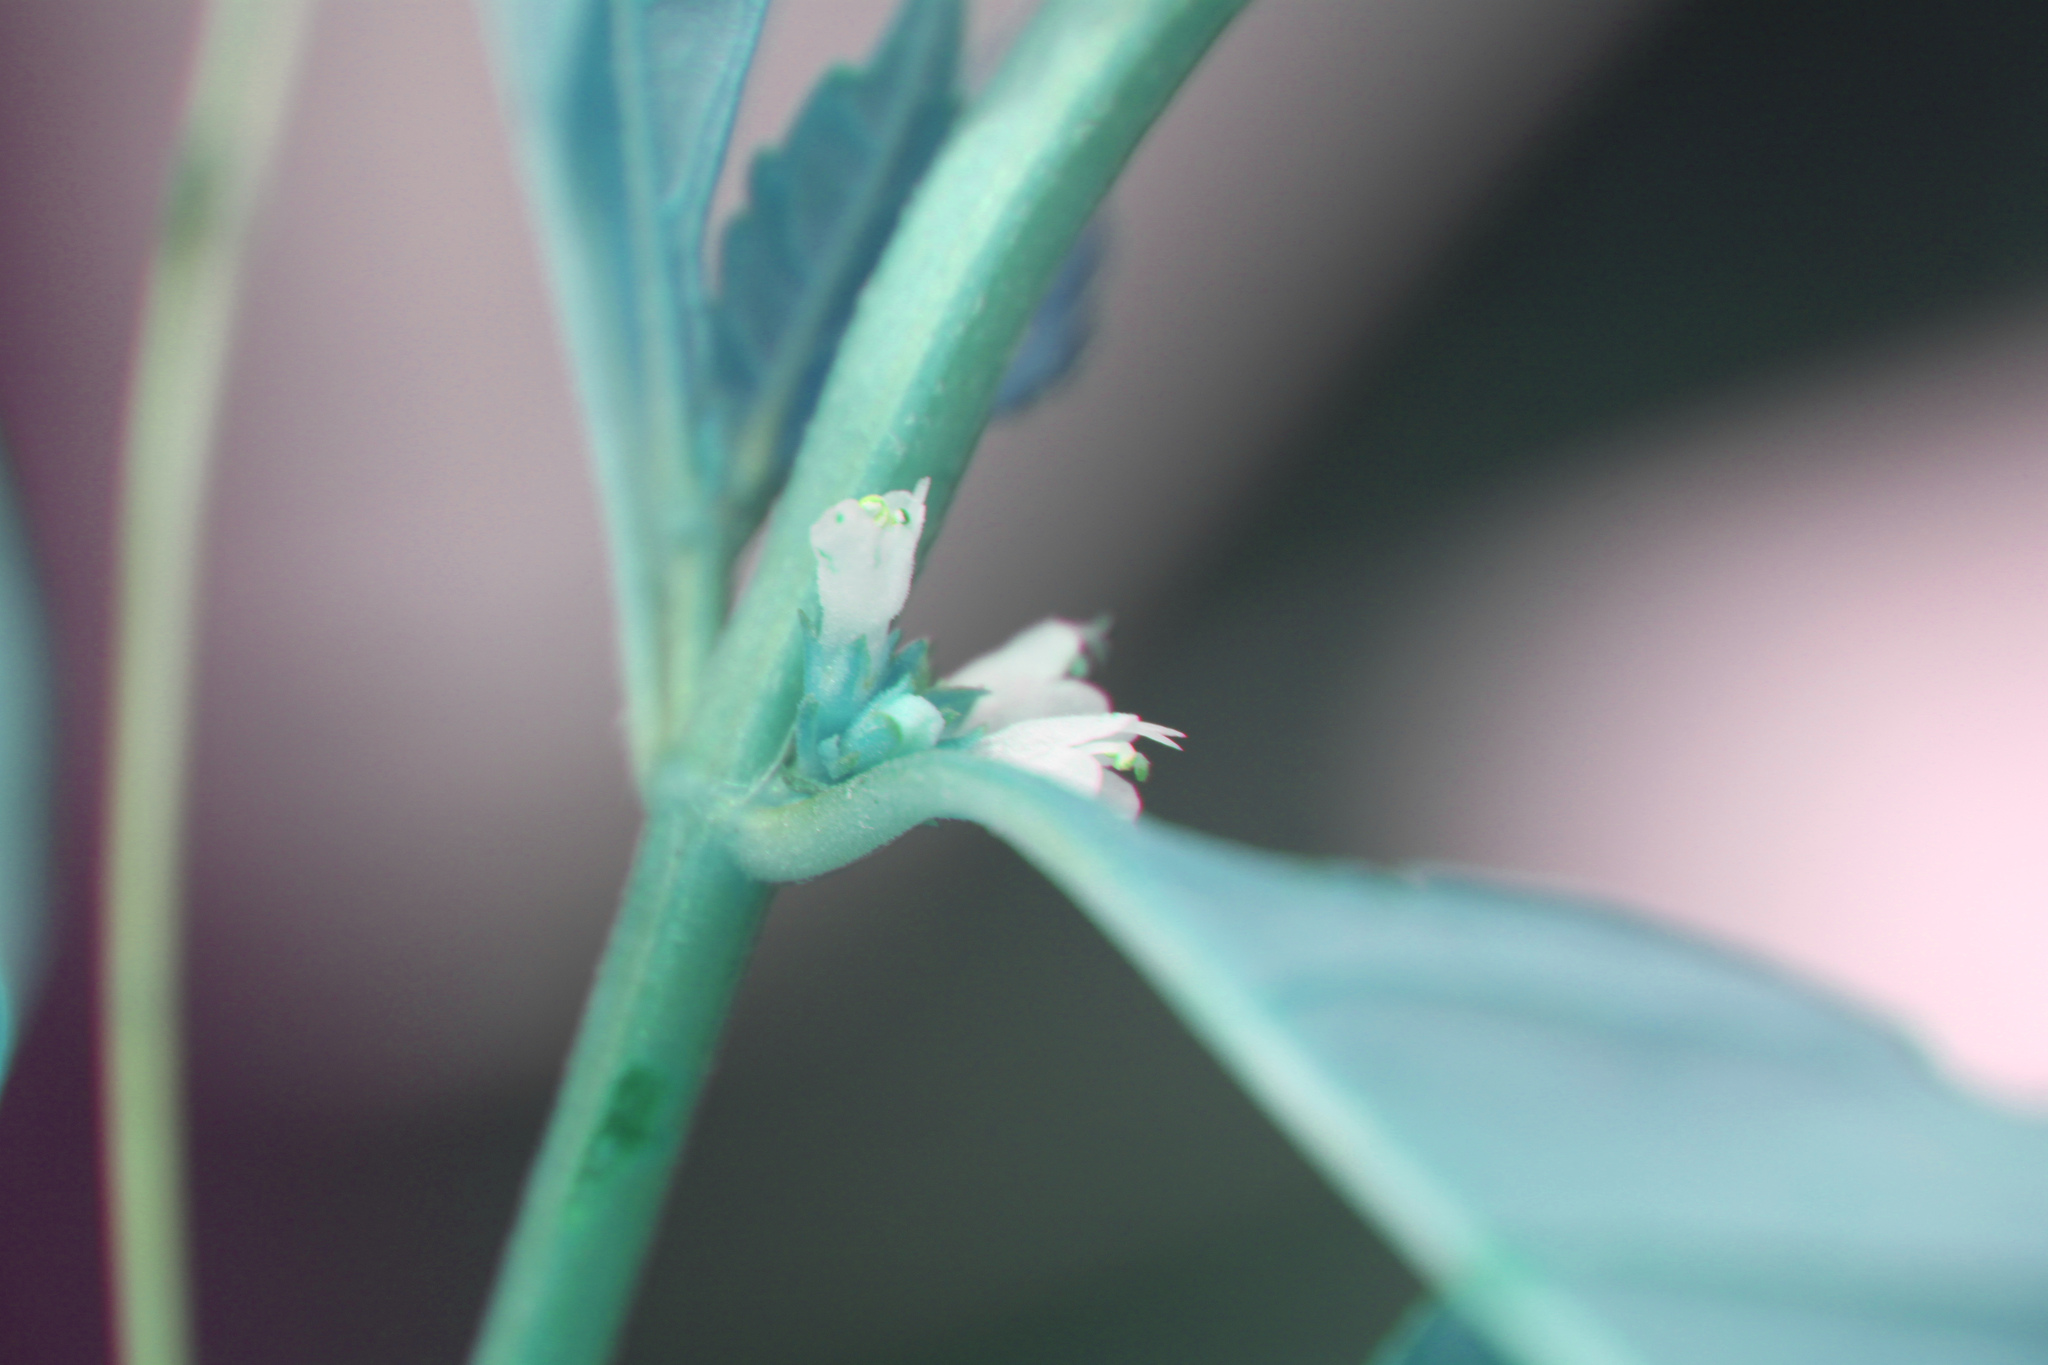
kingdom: Plantae
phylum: Tracheophyta
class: Magnoliopsida
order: Lamiales
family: Lamiaceae
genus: Lycopus
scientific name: Lycopus uniflorus
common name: Northern bugleweed
